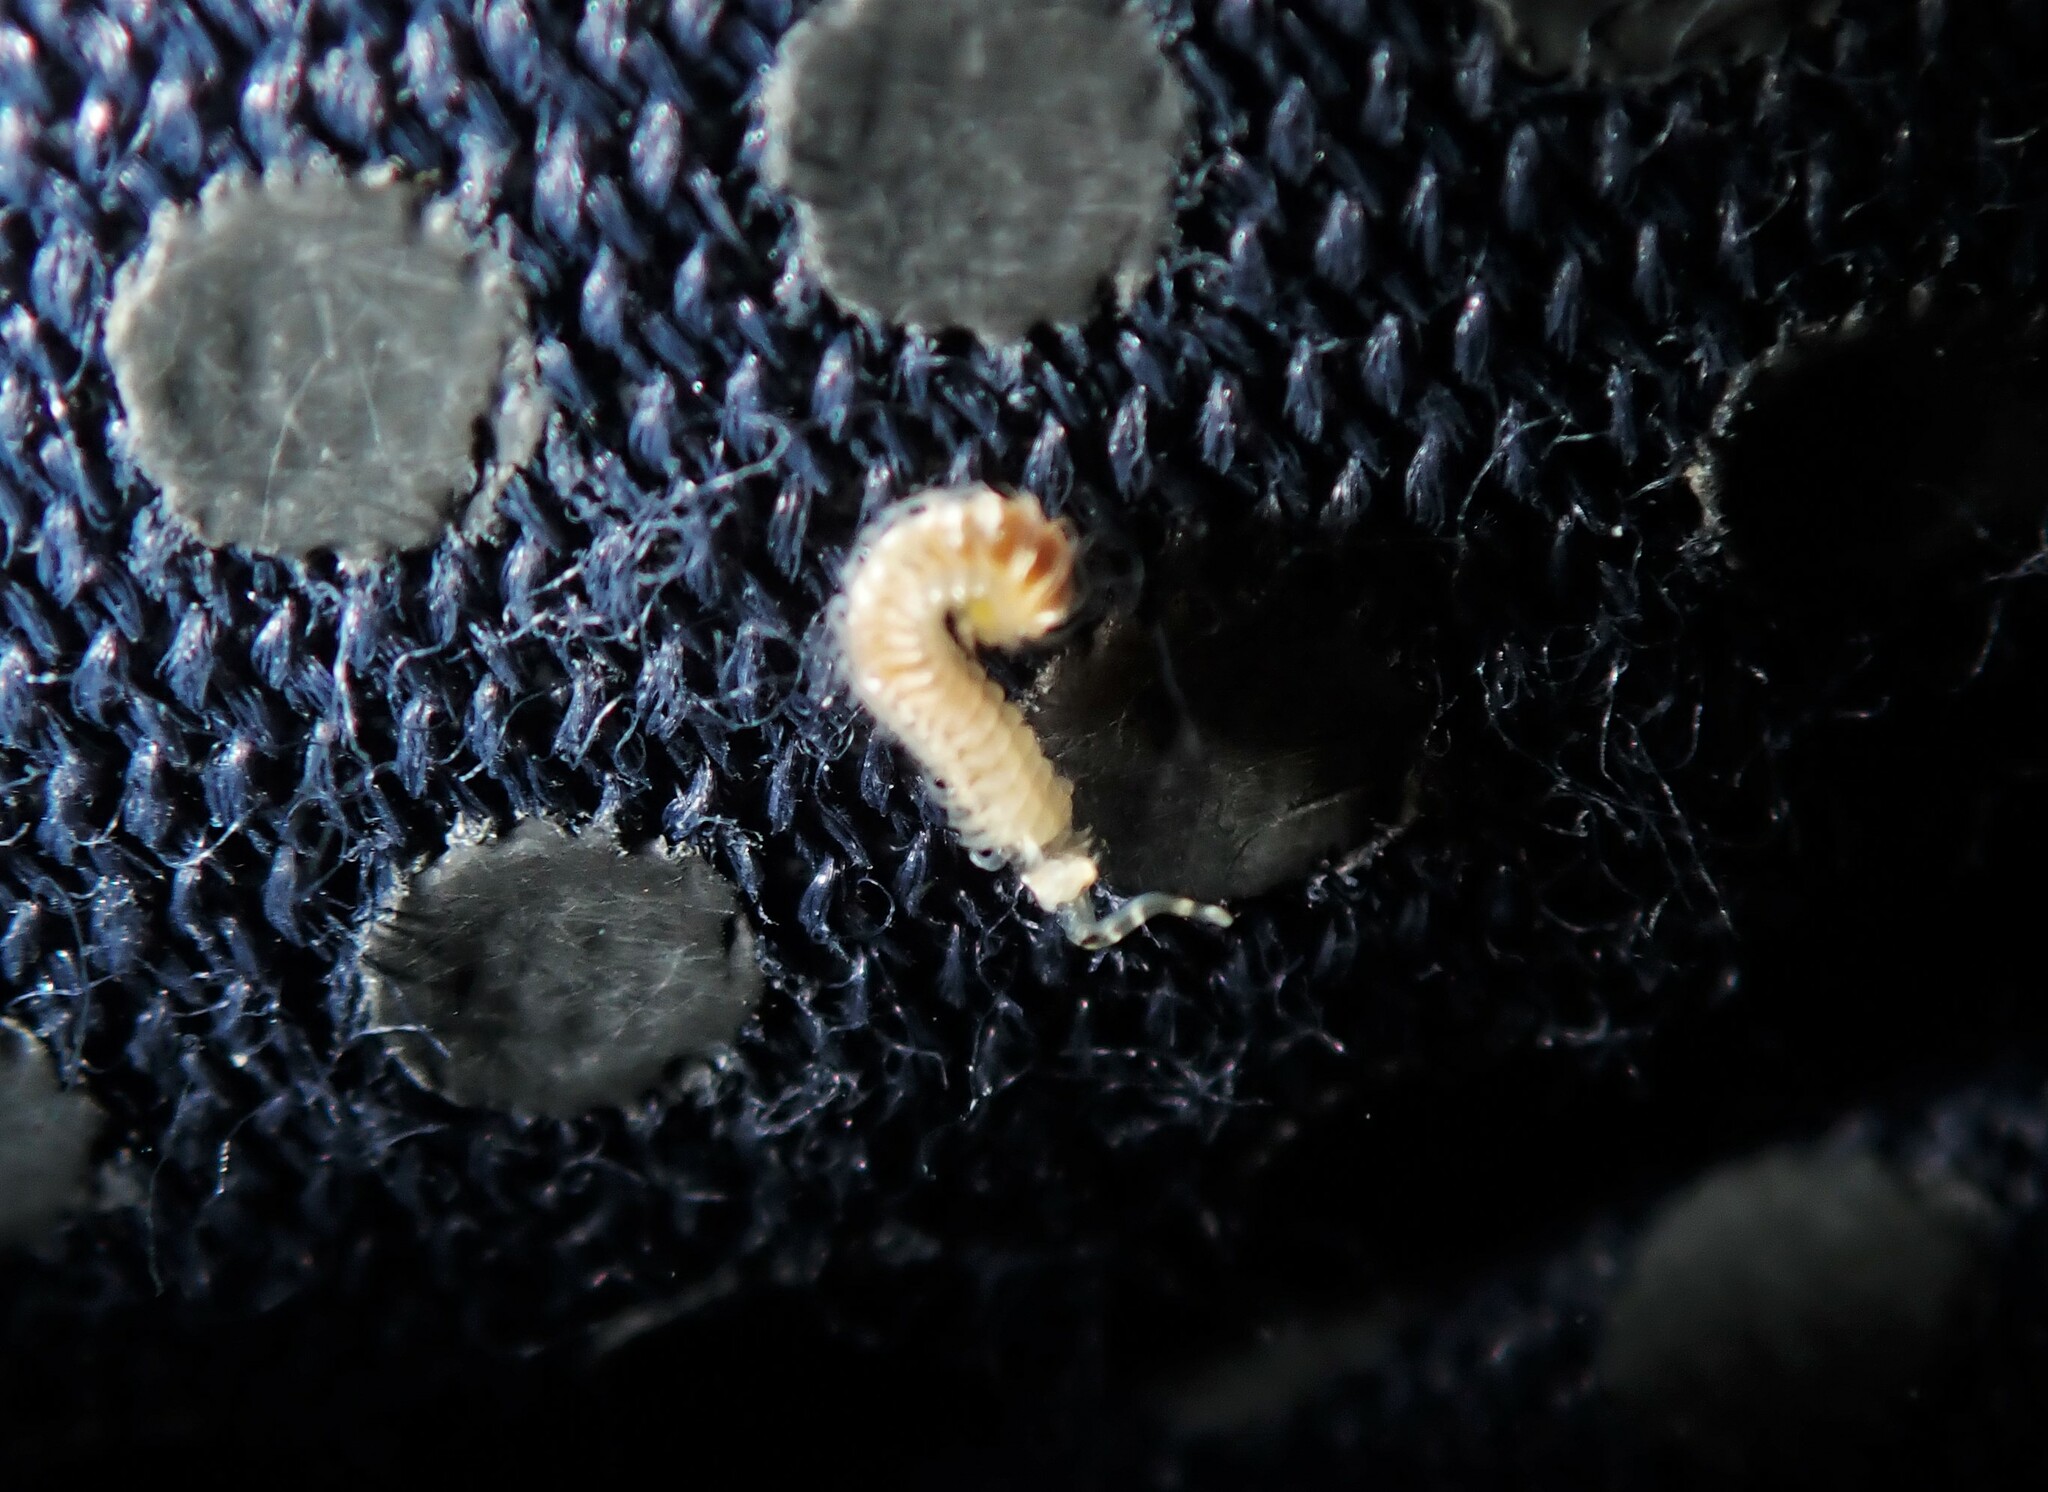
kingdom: Animalia
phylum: Annelida
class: Polychaeta
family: Spionidae
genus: Boccardia
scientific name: Boccardia chilensis
